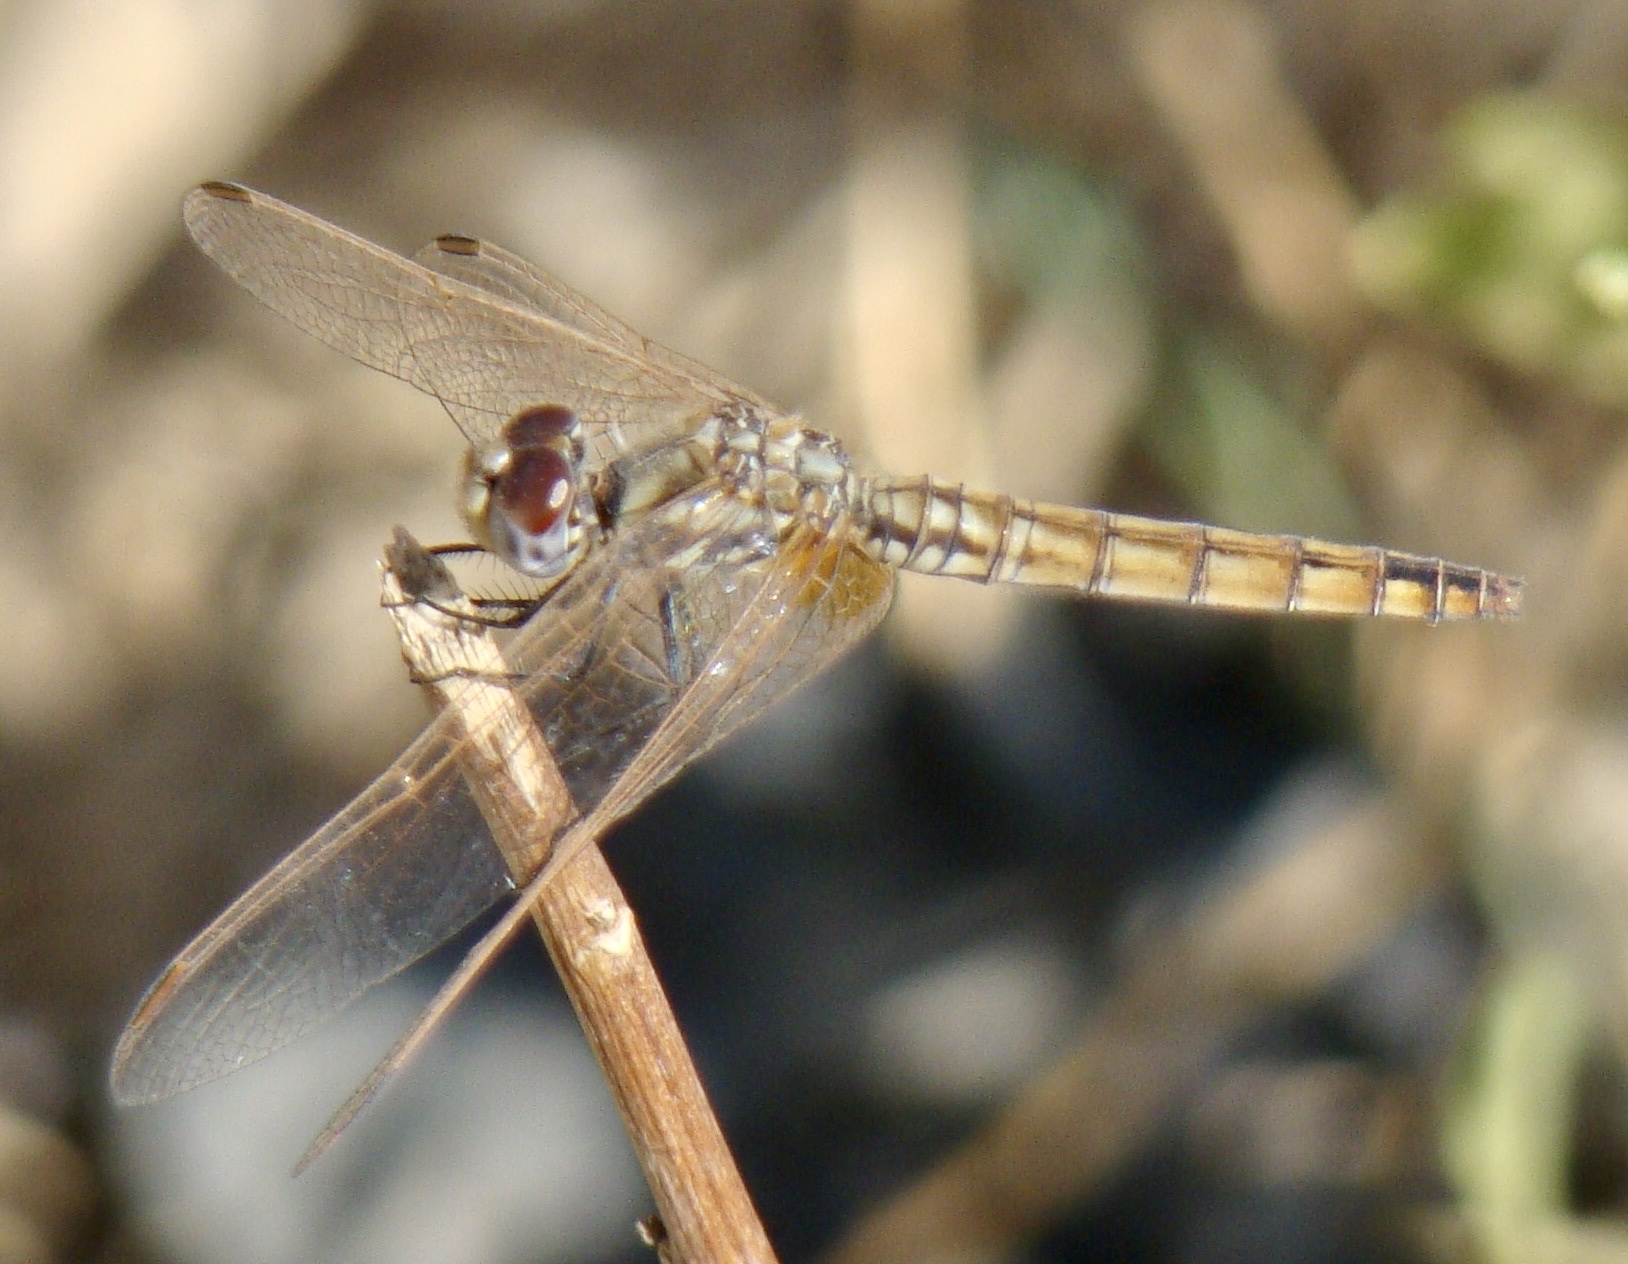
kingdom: Animalia
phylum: Arthropoda
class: Insecta
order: Odonata
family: Libellulidae
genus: Trithemis
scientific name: Trithemis annulata
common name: Violet dropwing
